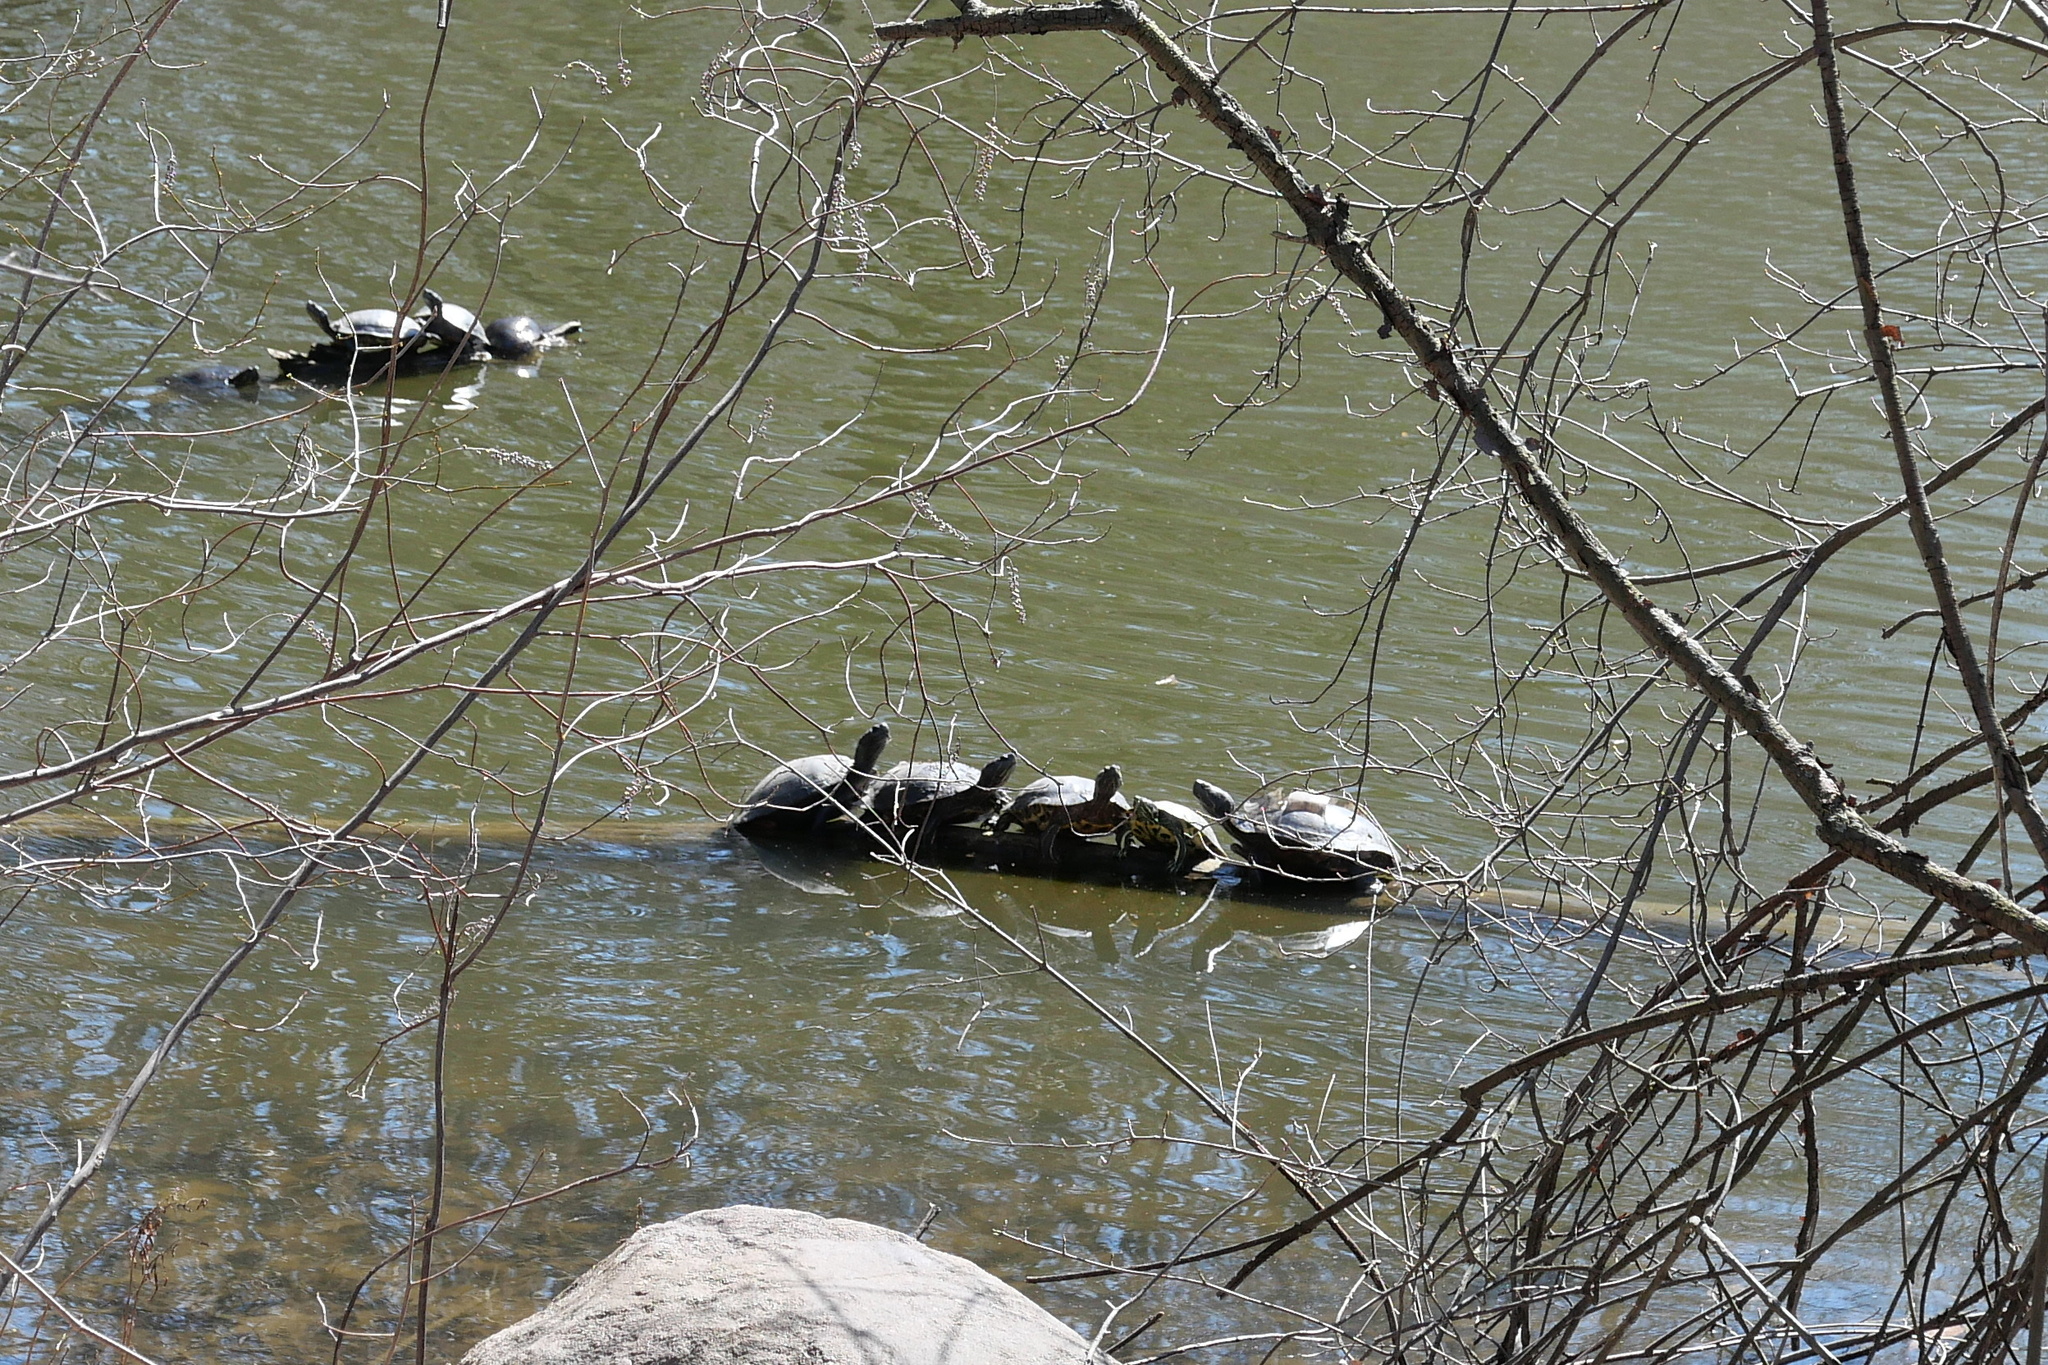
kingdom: Animalia
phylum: Chordata
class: Testudines
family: Emydidae
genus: Trachemys
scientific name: Trachemys scripta
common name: Slider
